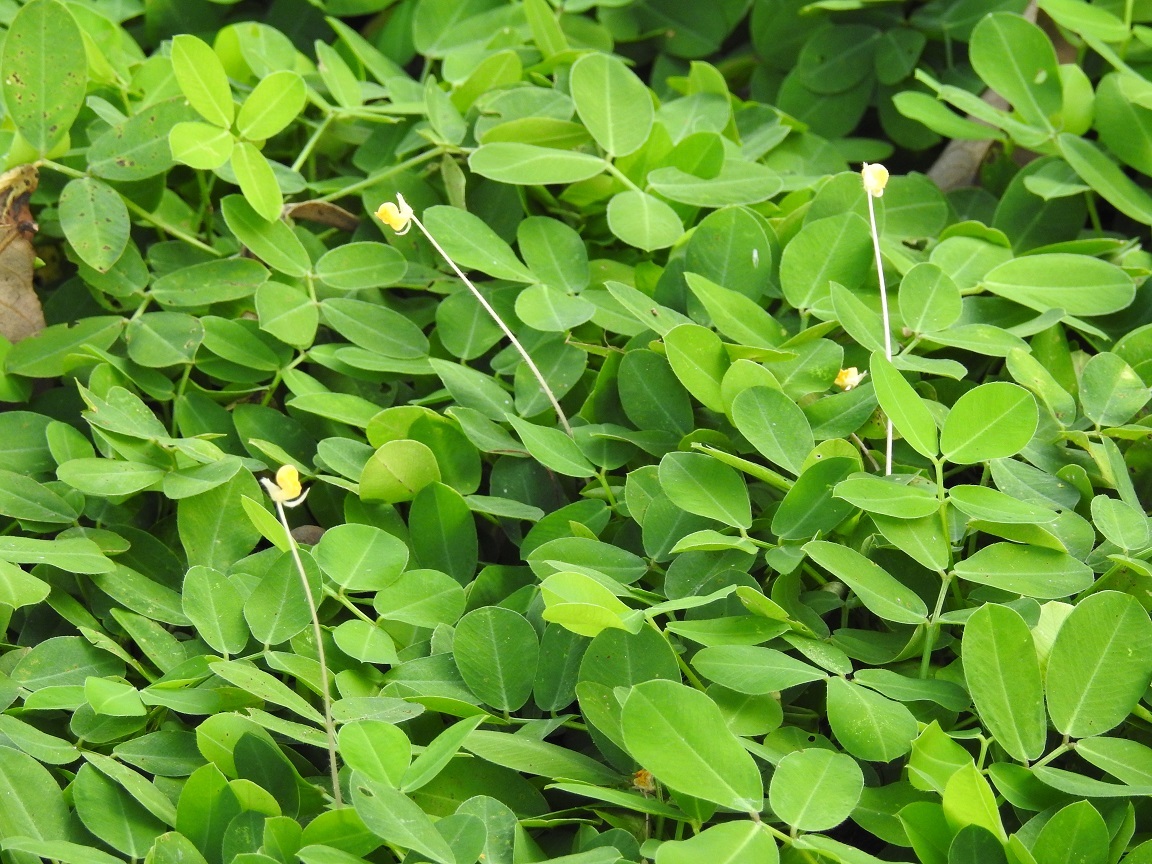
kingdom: Plantae
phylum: Tracheophyta
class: Magnoliopsida
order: Fabales
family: Fabaceae
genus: Arachis
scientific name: Arachis pintoi
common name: Pinto peanut
